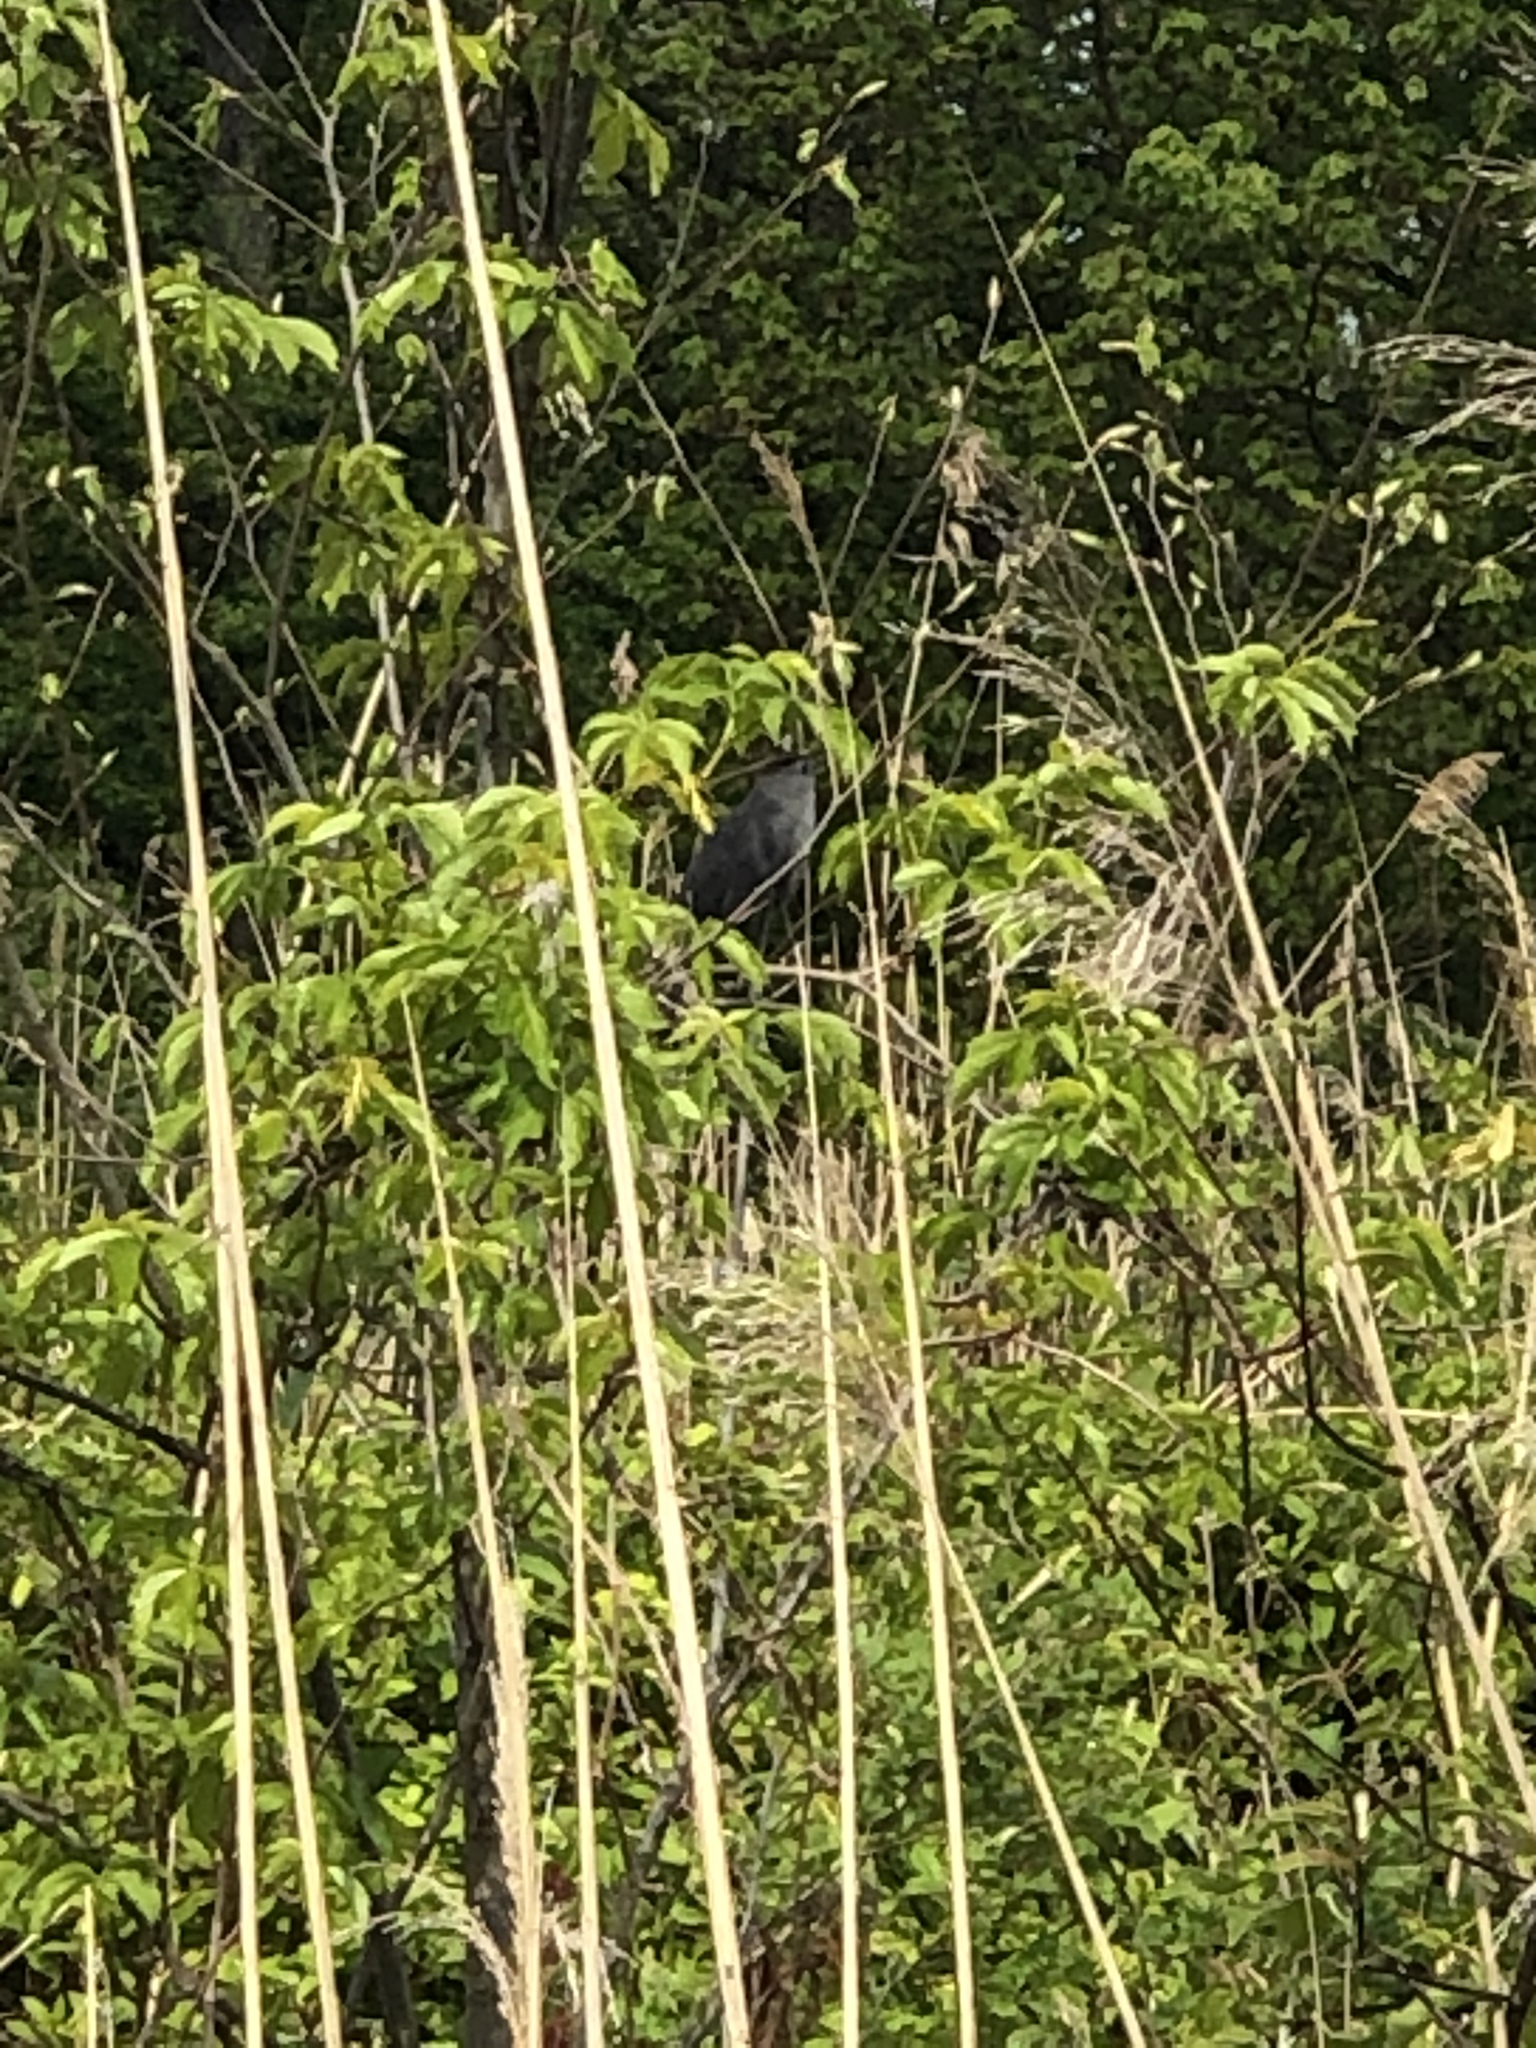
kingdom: Animalia
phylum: Chordata
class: Aves
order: Passeriformes
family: Mimidae
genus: Dumetella
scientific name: Dumetella carolinensis
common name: Gray catbird
